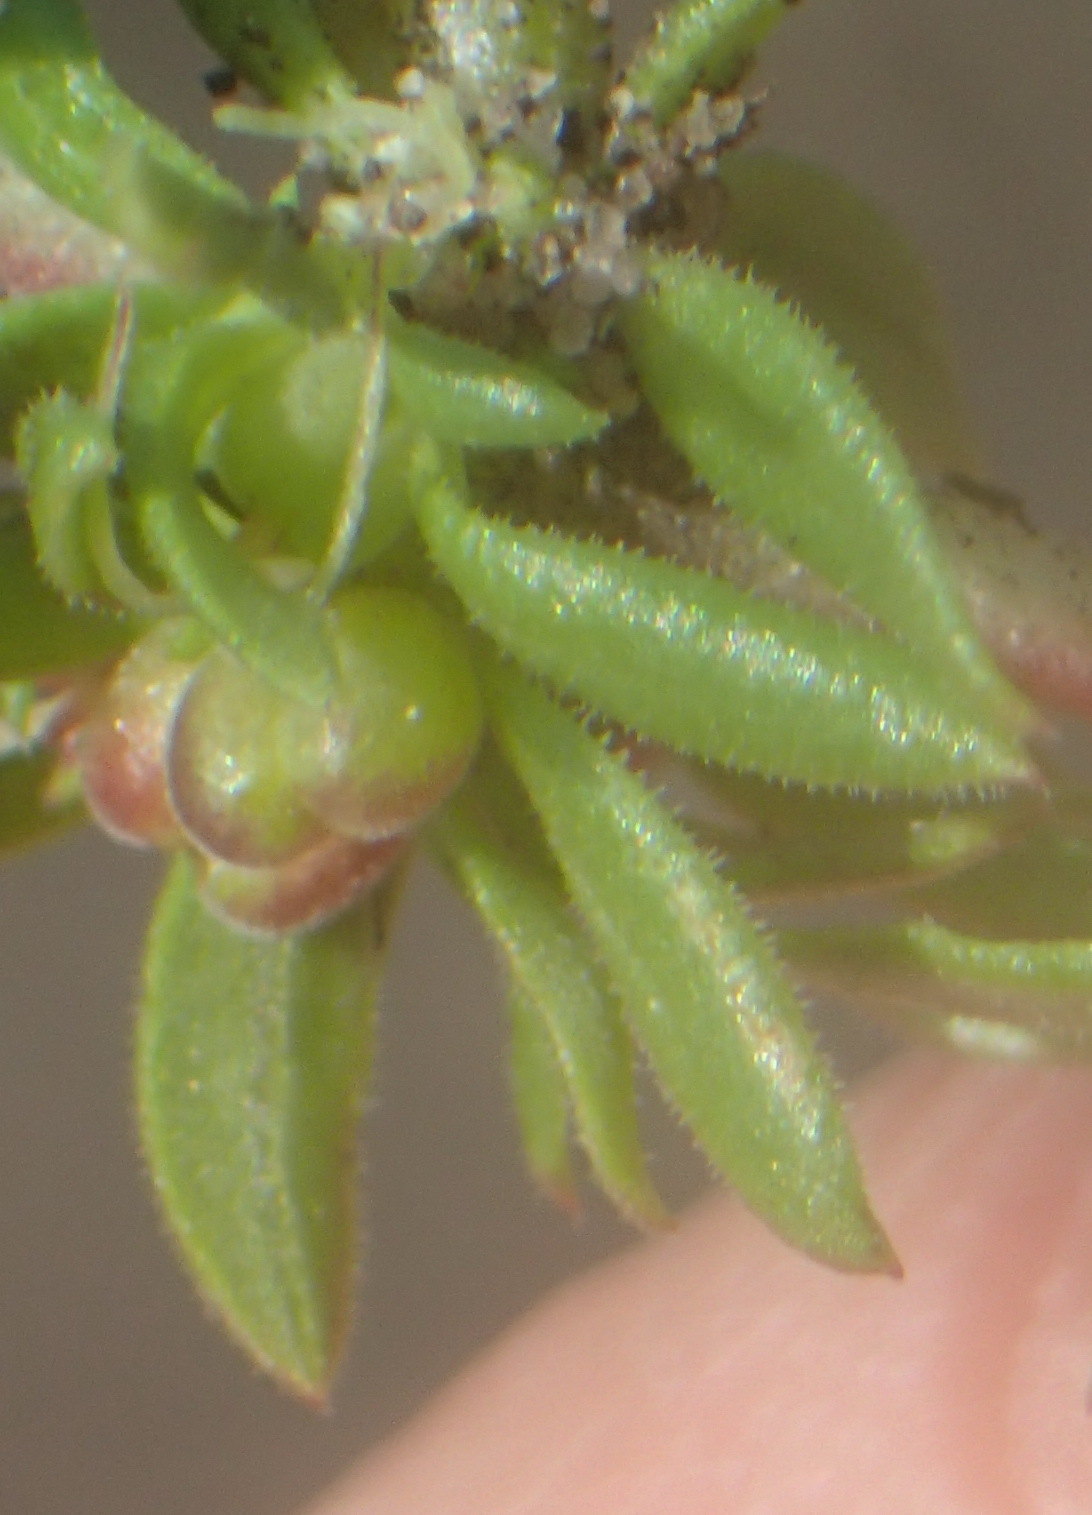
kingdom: Plantae
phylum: Tracheophyta
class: Magnoliopsida
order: Gentianales
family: Rubiaceae
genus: Anthospermum
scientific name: Anthospermum prostratum
